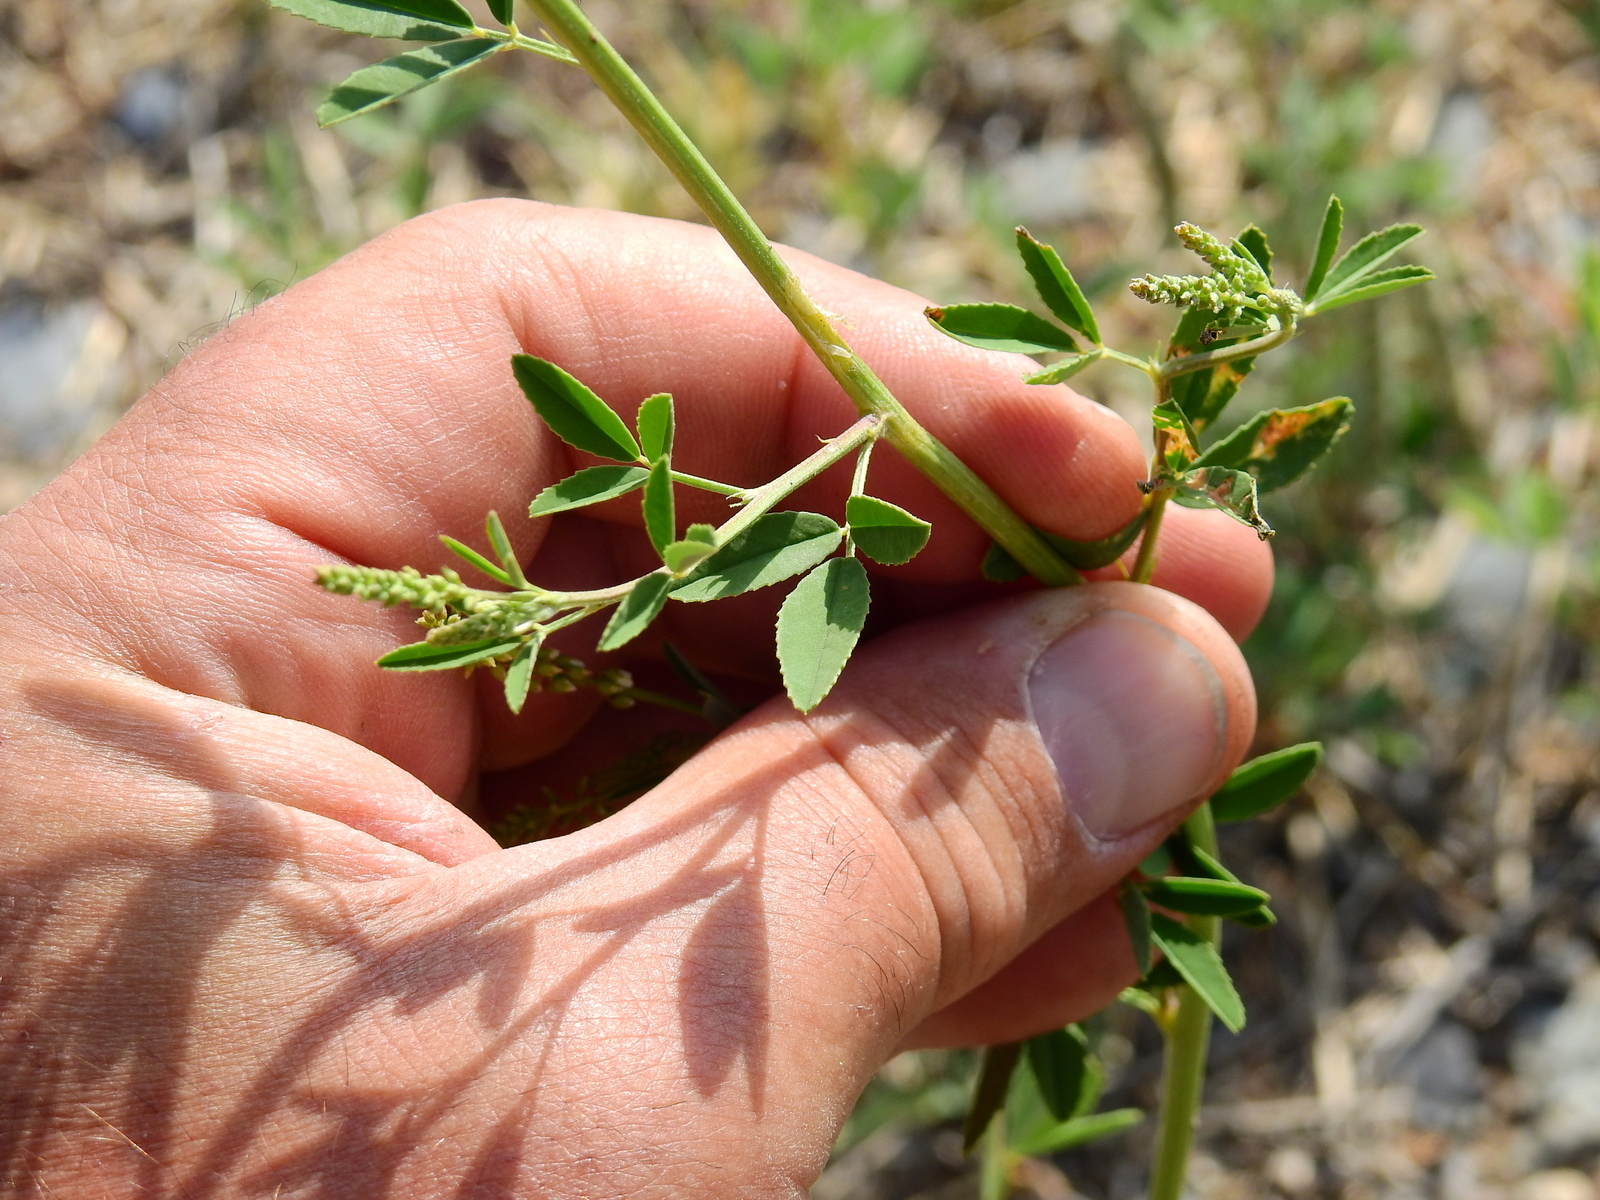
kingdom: Plantae
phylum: Tracheophyta
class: Magnoliopsida
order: Fabales
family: Fabaceae
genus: Melilotus
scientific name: Melilotus albus
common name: White melilot
